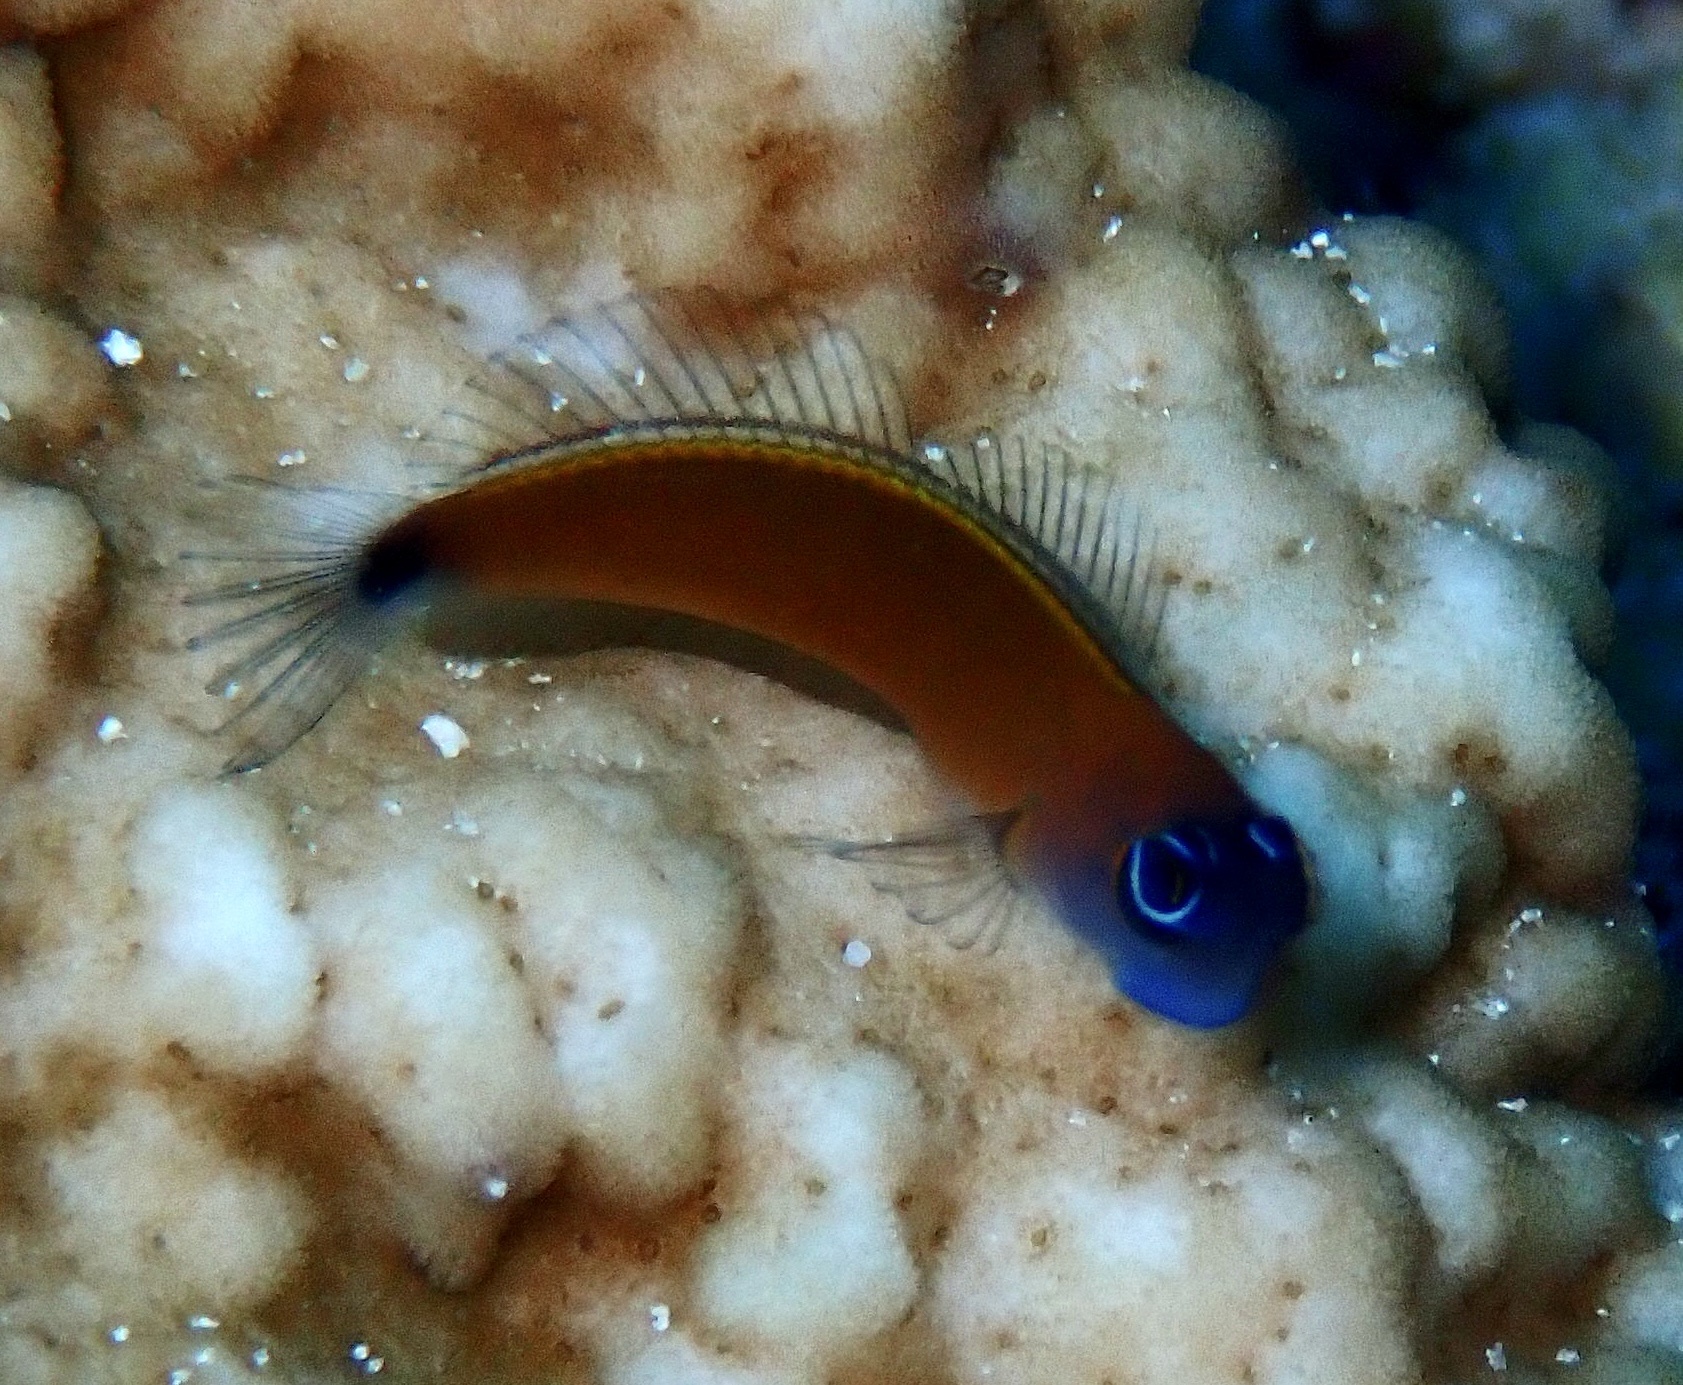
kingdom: Animalia
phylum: Chordata
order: Perciformes
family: Blenniidae
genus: Ecsenius
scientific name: Ecsenius aroni
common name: Aron's blenny
